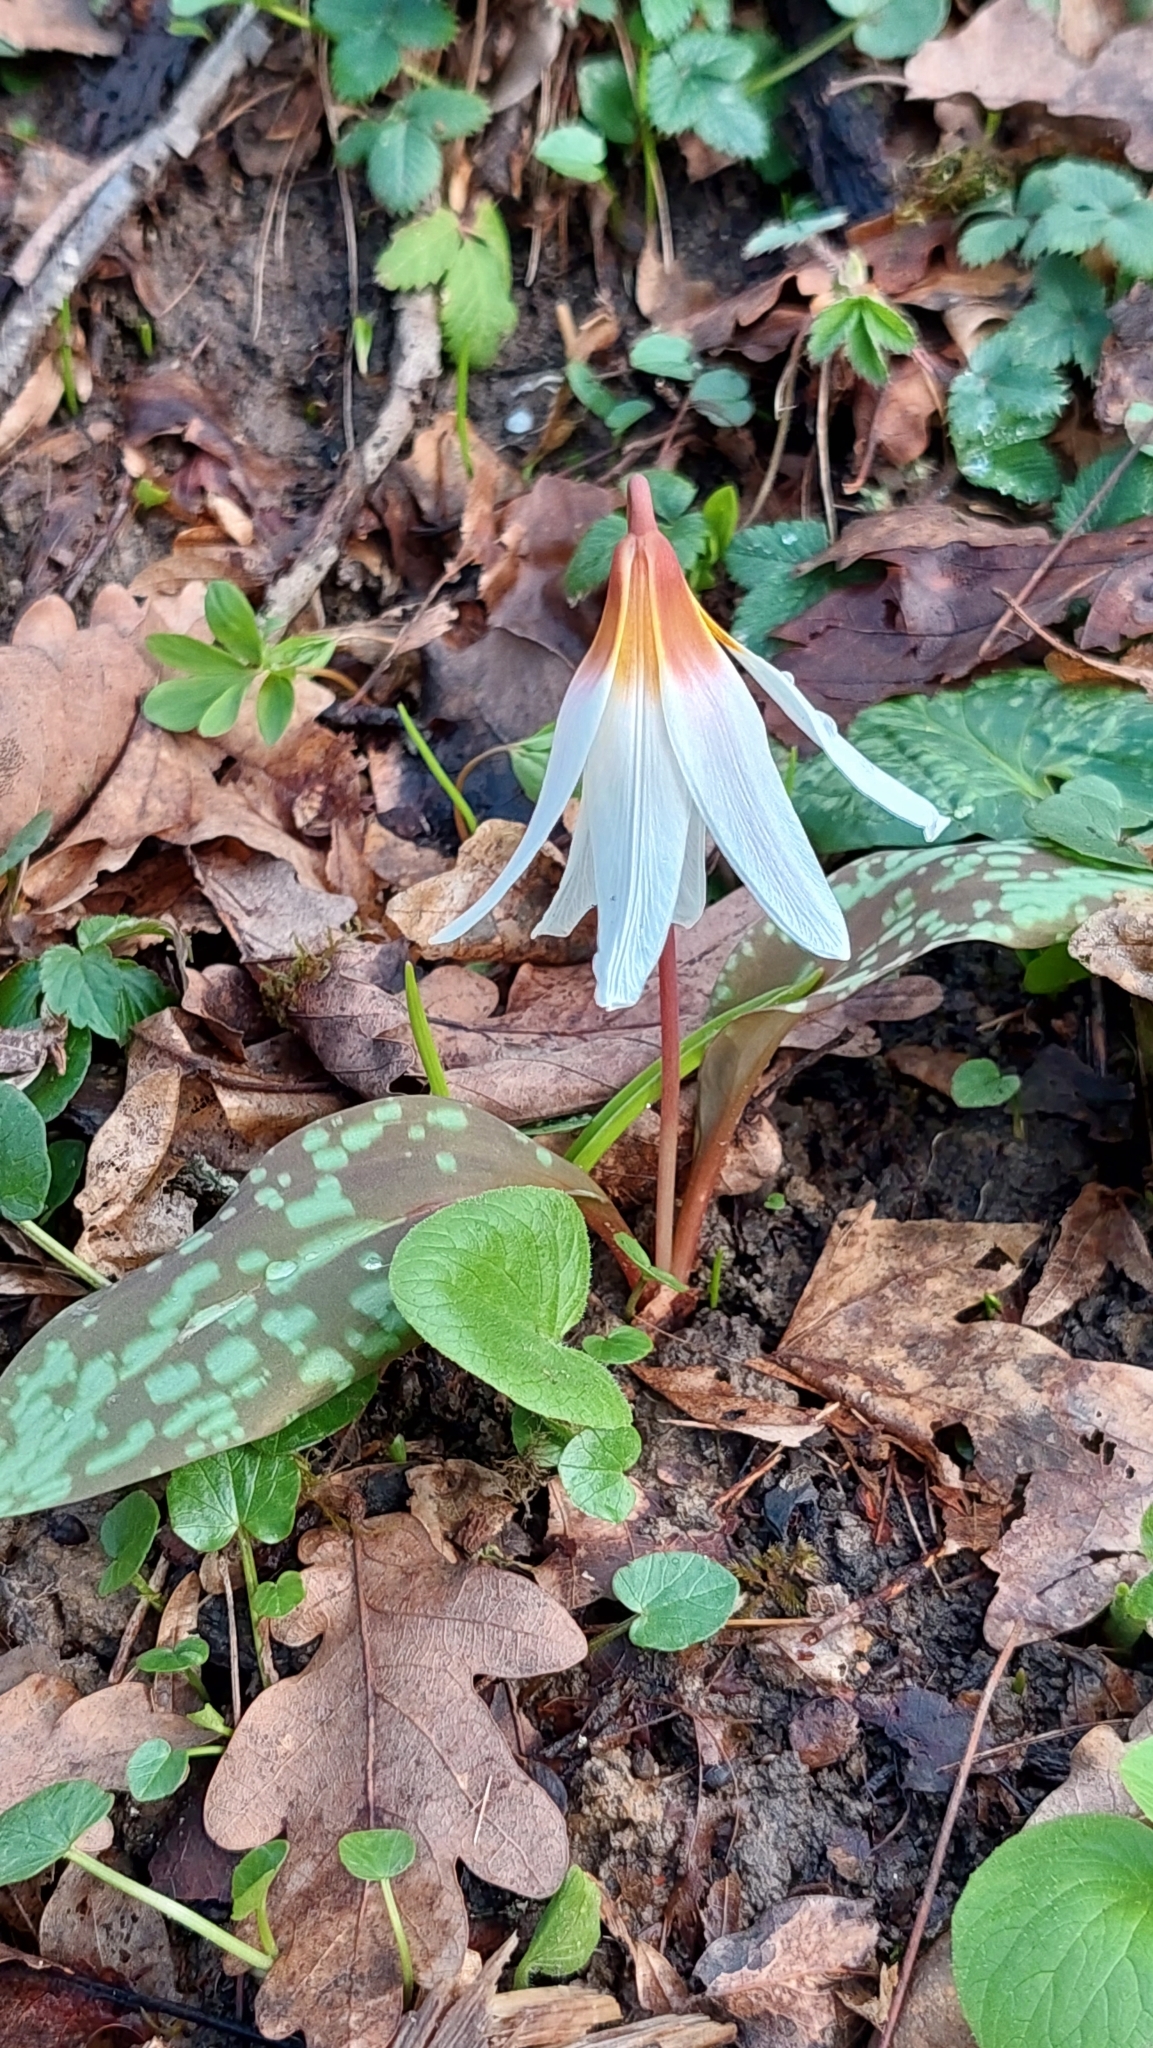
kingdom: Plantae
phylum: Tracheophyta
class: Liliopsida
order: Liliales
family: Liliaceae
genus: Erythronium
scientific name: Erythronium caucasicum
